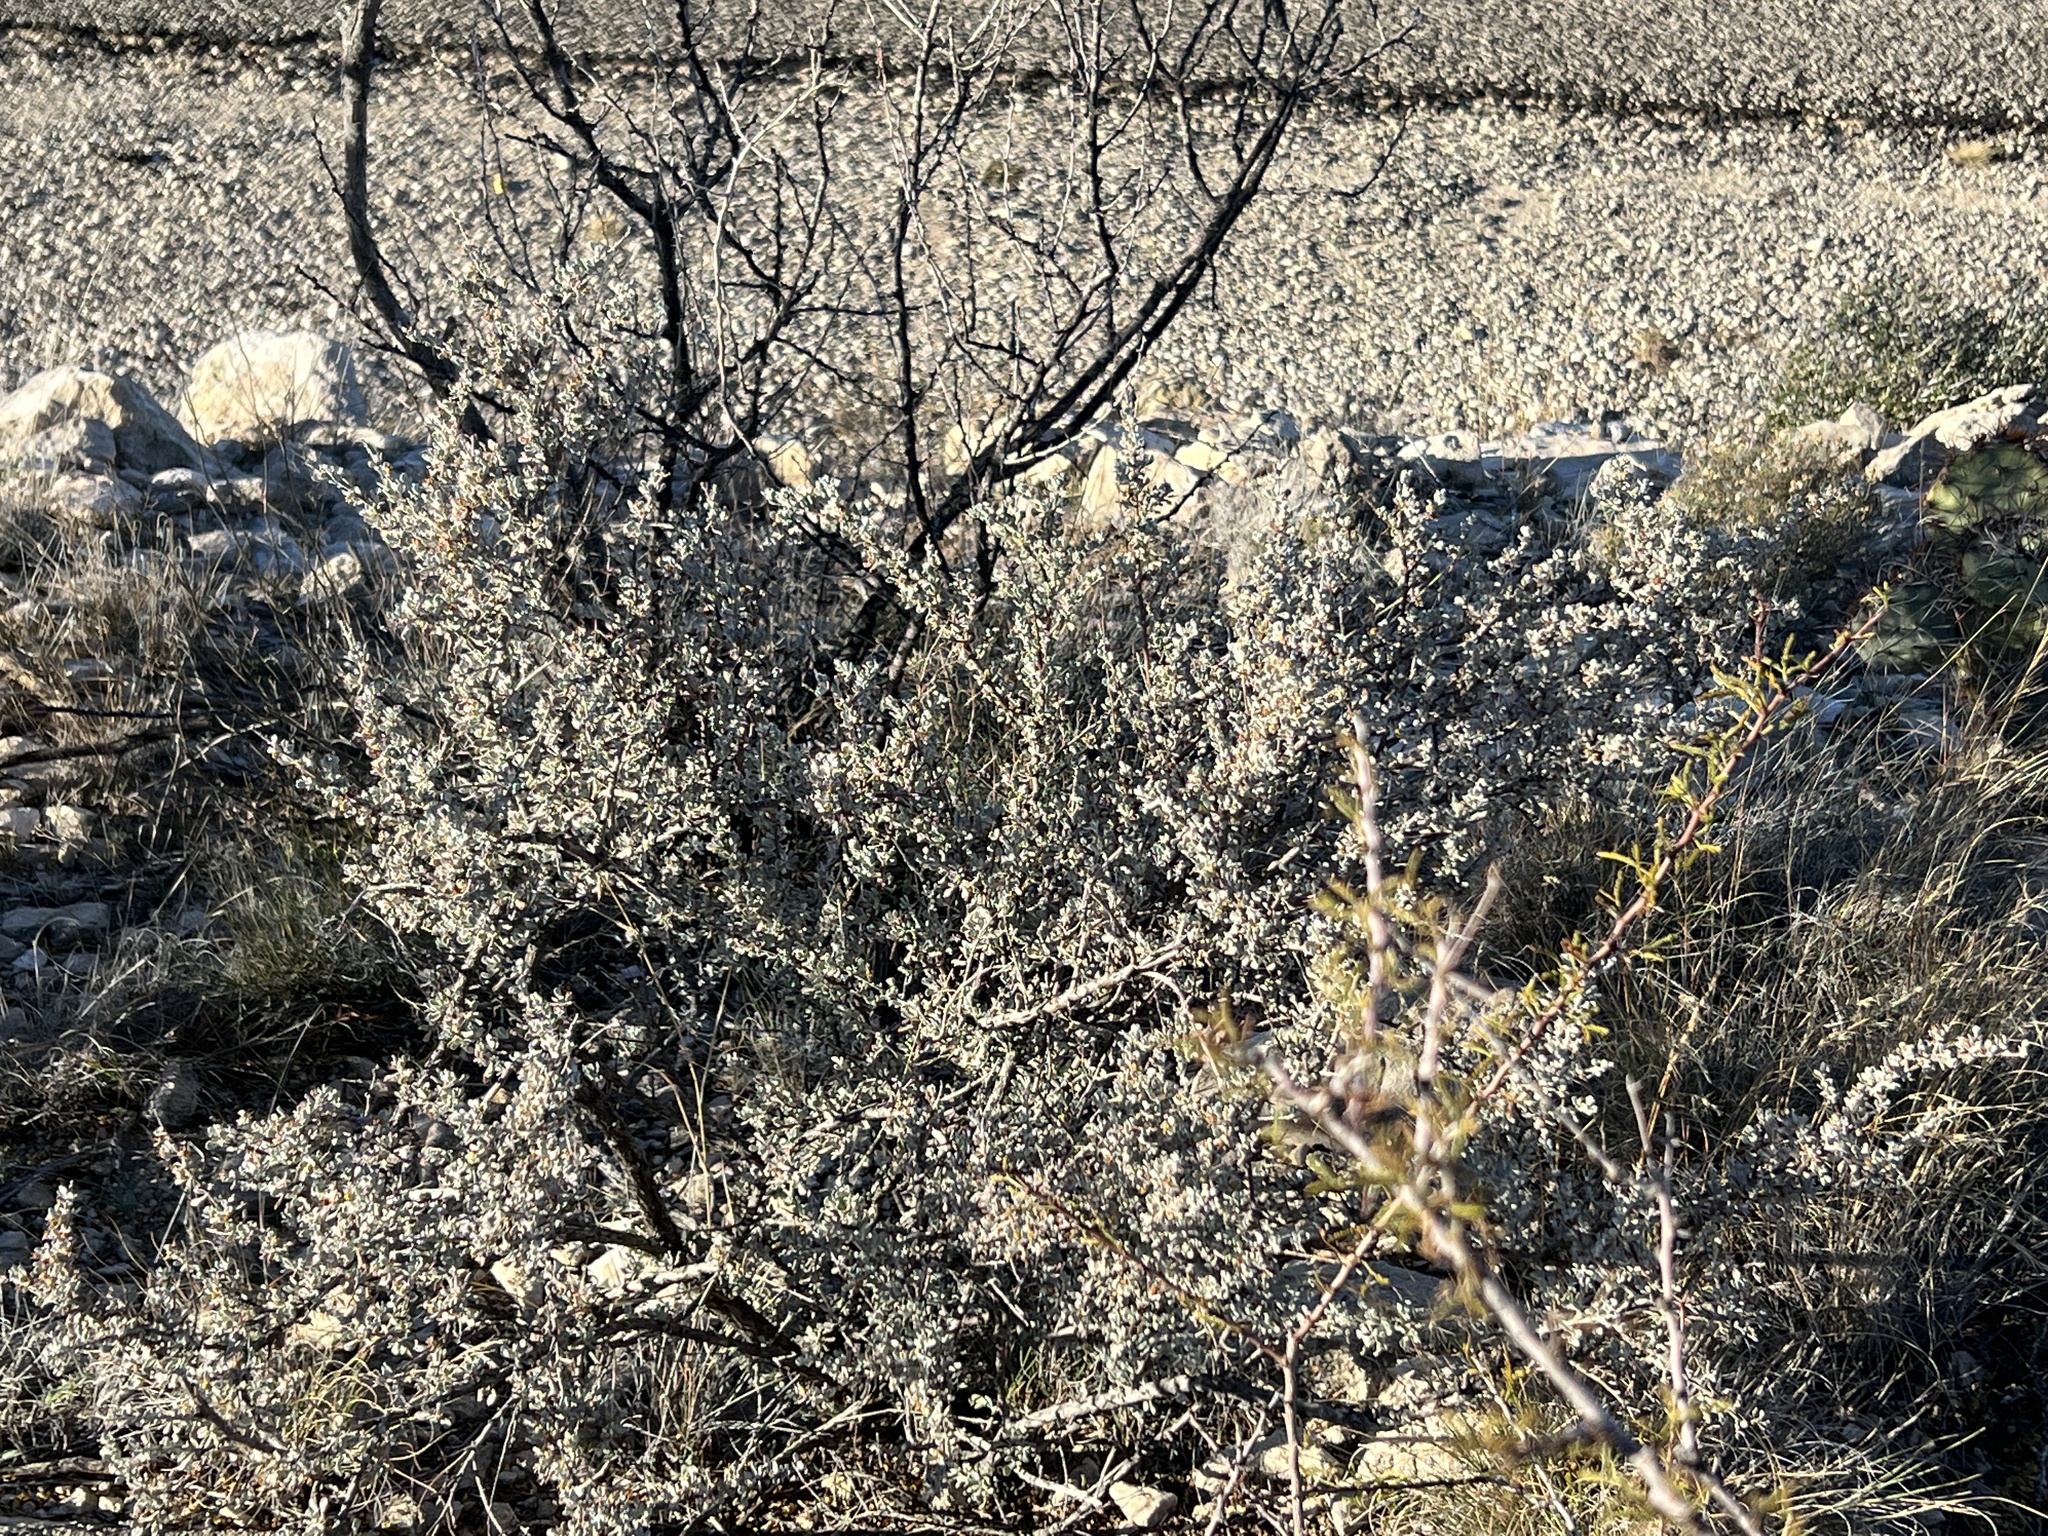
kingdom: Plantae
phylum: Tracheophyta
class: Magnoliopsida
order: Lamiales
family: Scrophulariaceae
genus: Leucophyllum
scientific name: Leucophyllum minus
